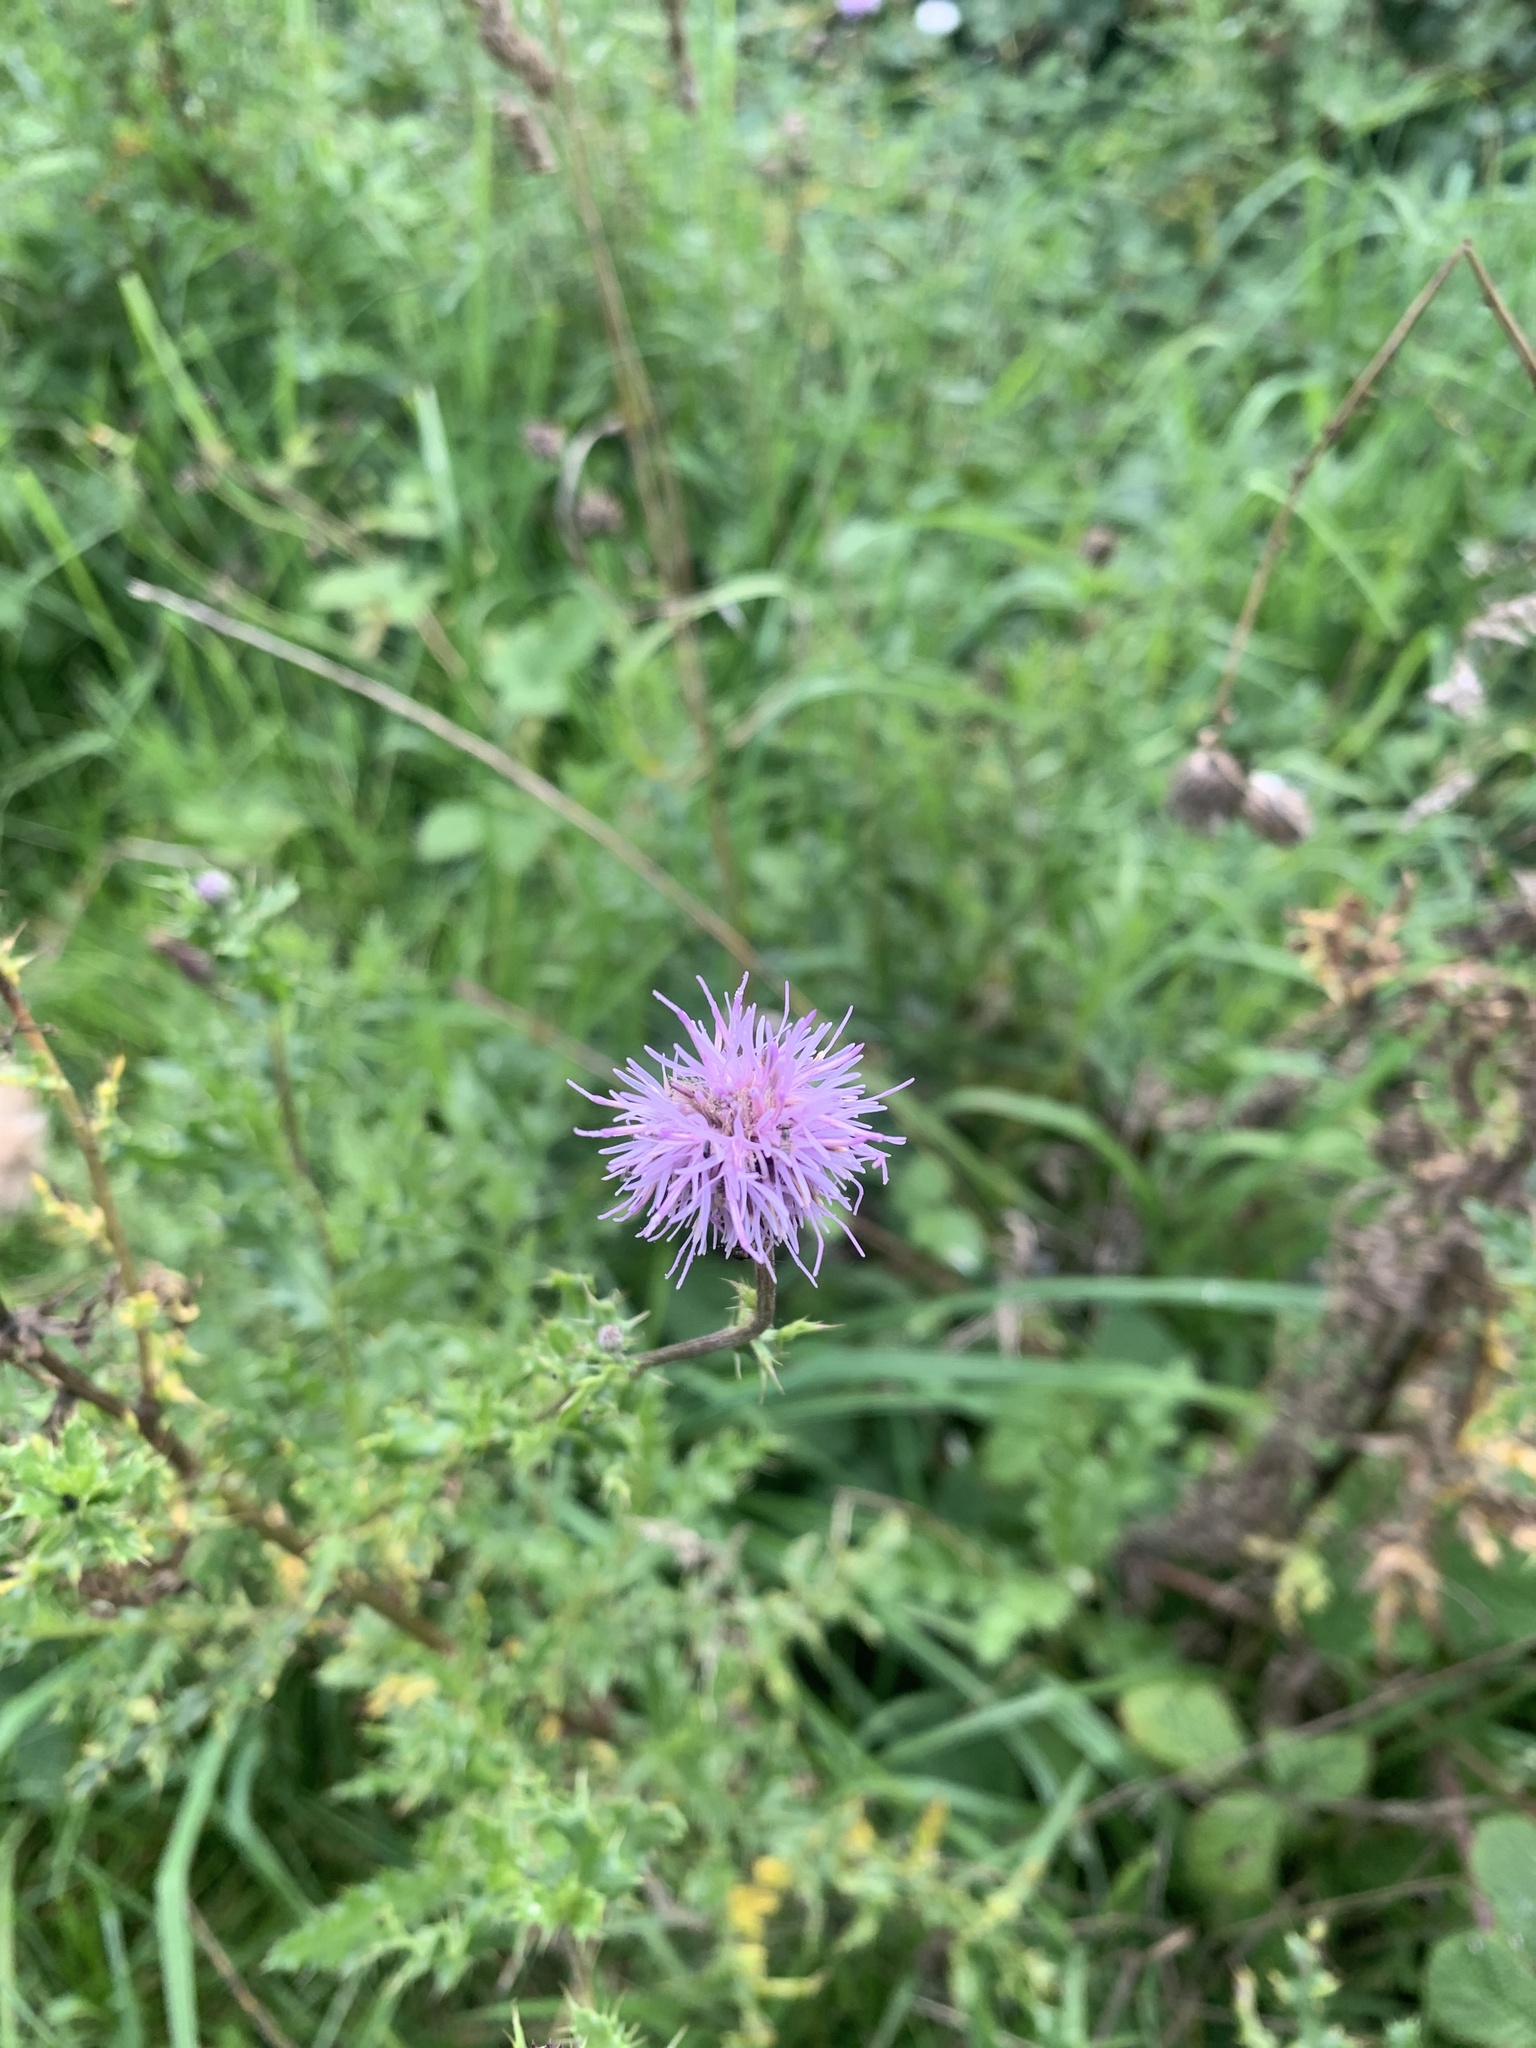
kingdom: Plantae
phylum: Tracheophyta
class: Magnoliopsida
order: Asterales
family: Asteraceae
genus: Cirsium
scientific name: Cirsium arvense
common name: Creeping thistle
